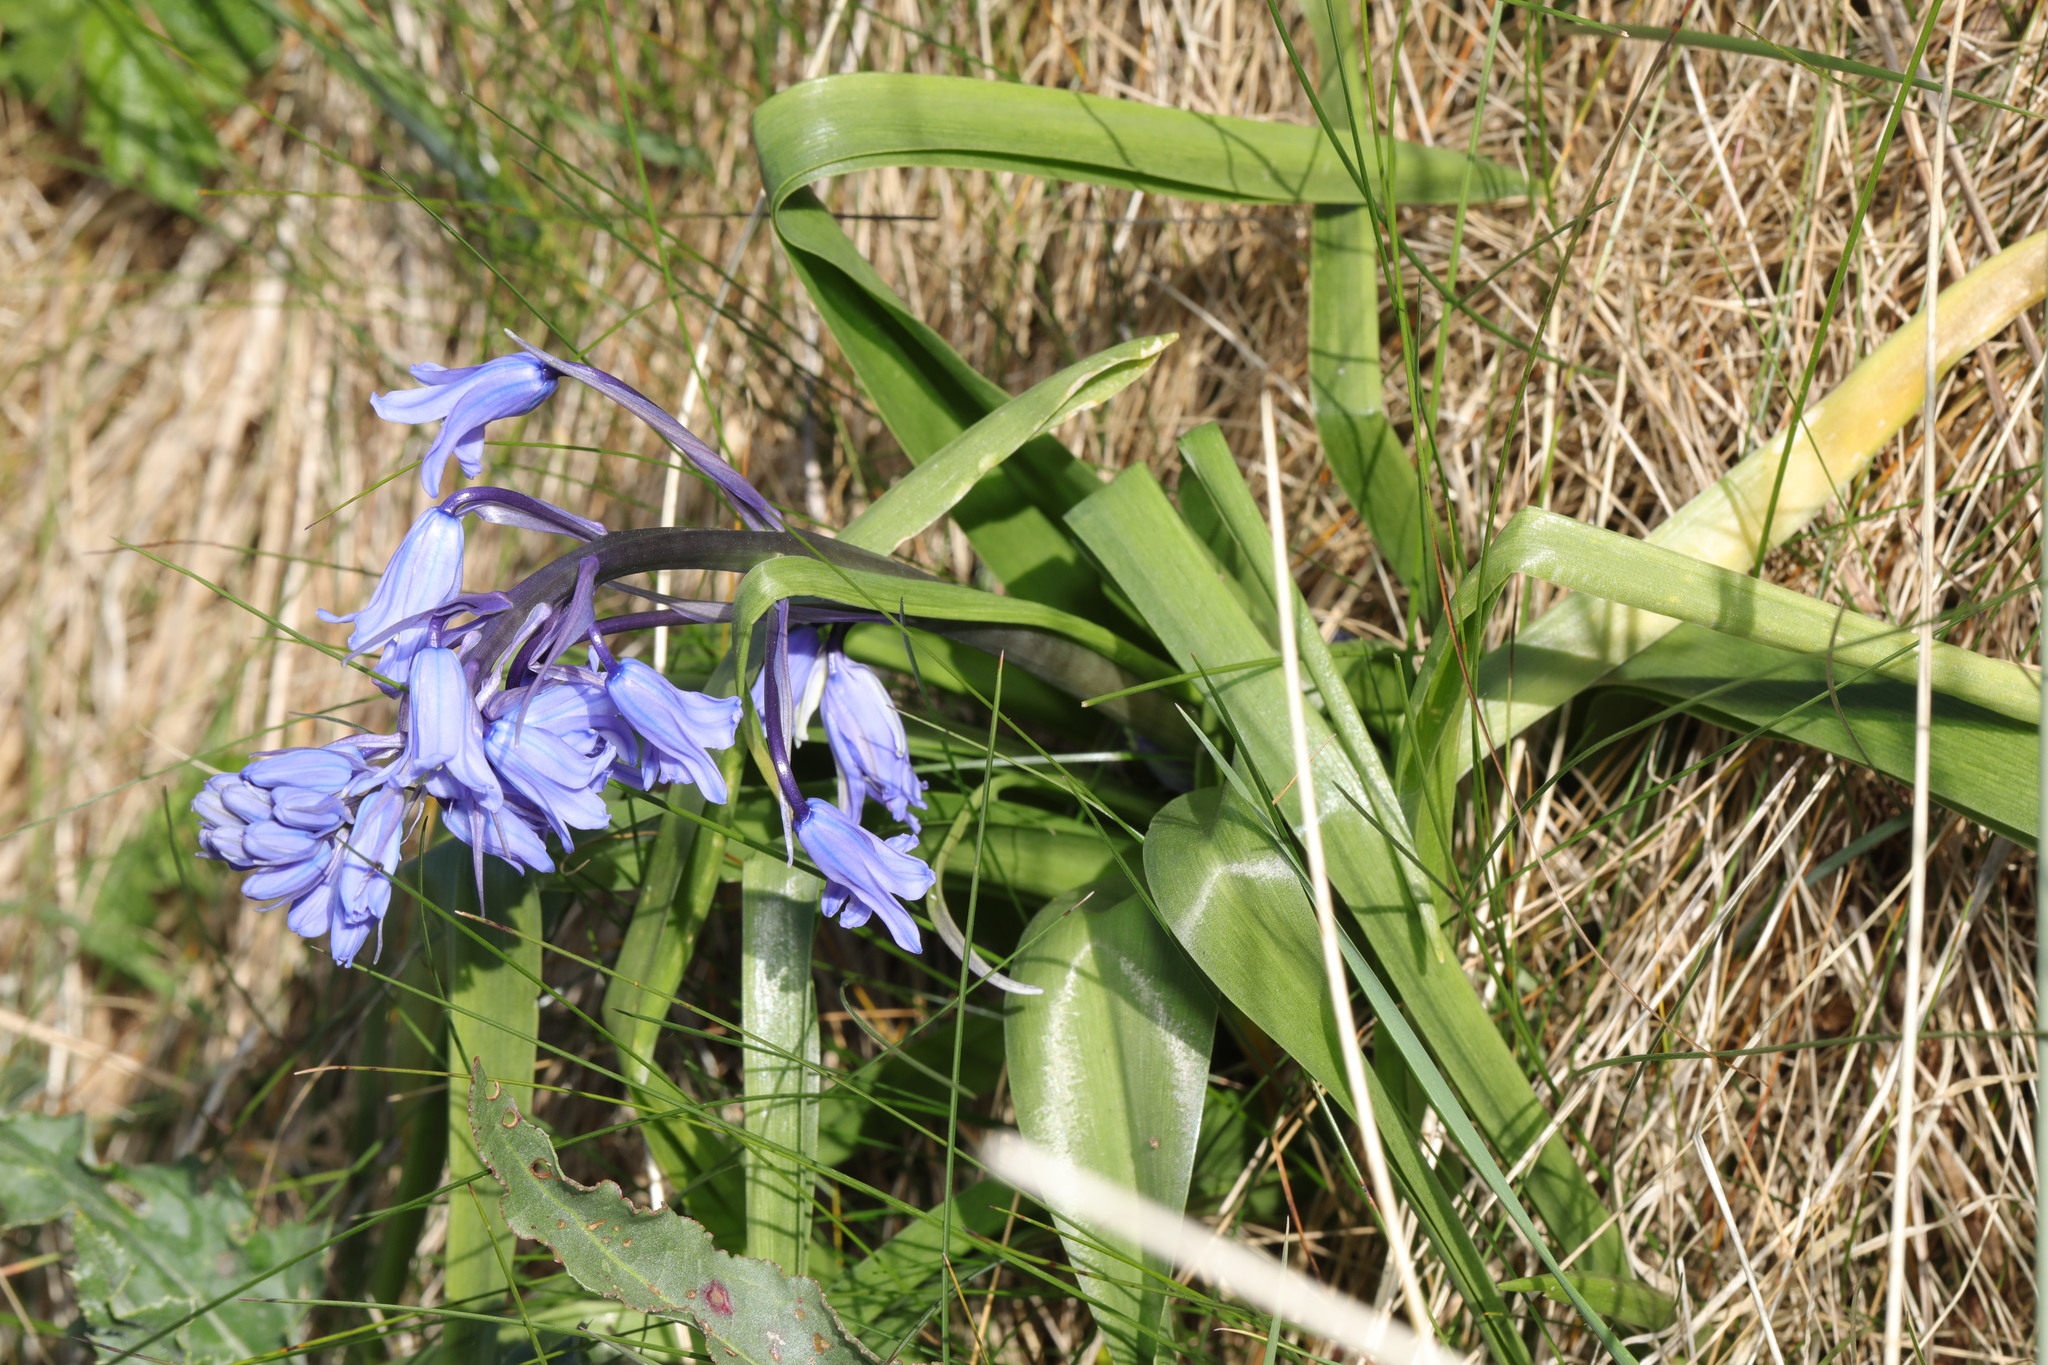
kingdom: Plantae
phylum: Tracheophyta
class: Liliopsida
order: Asparagales
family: Asparagaceae
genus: Hyacinthoides
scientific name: Hyacinthoides massartiana
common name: Hyacinthoides
